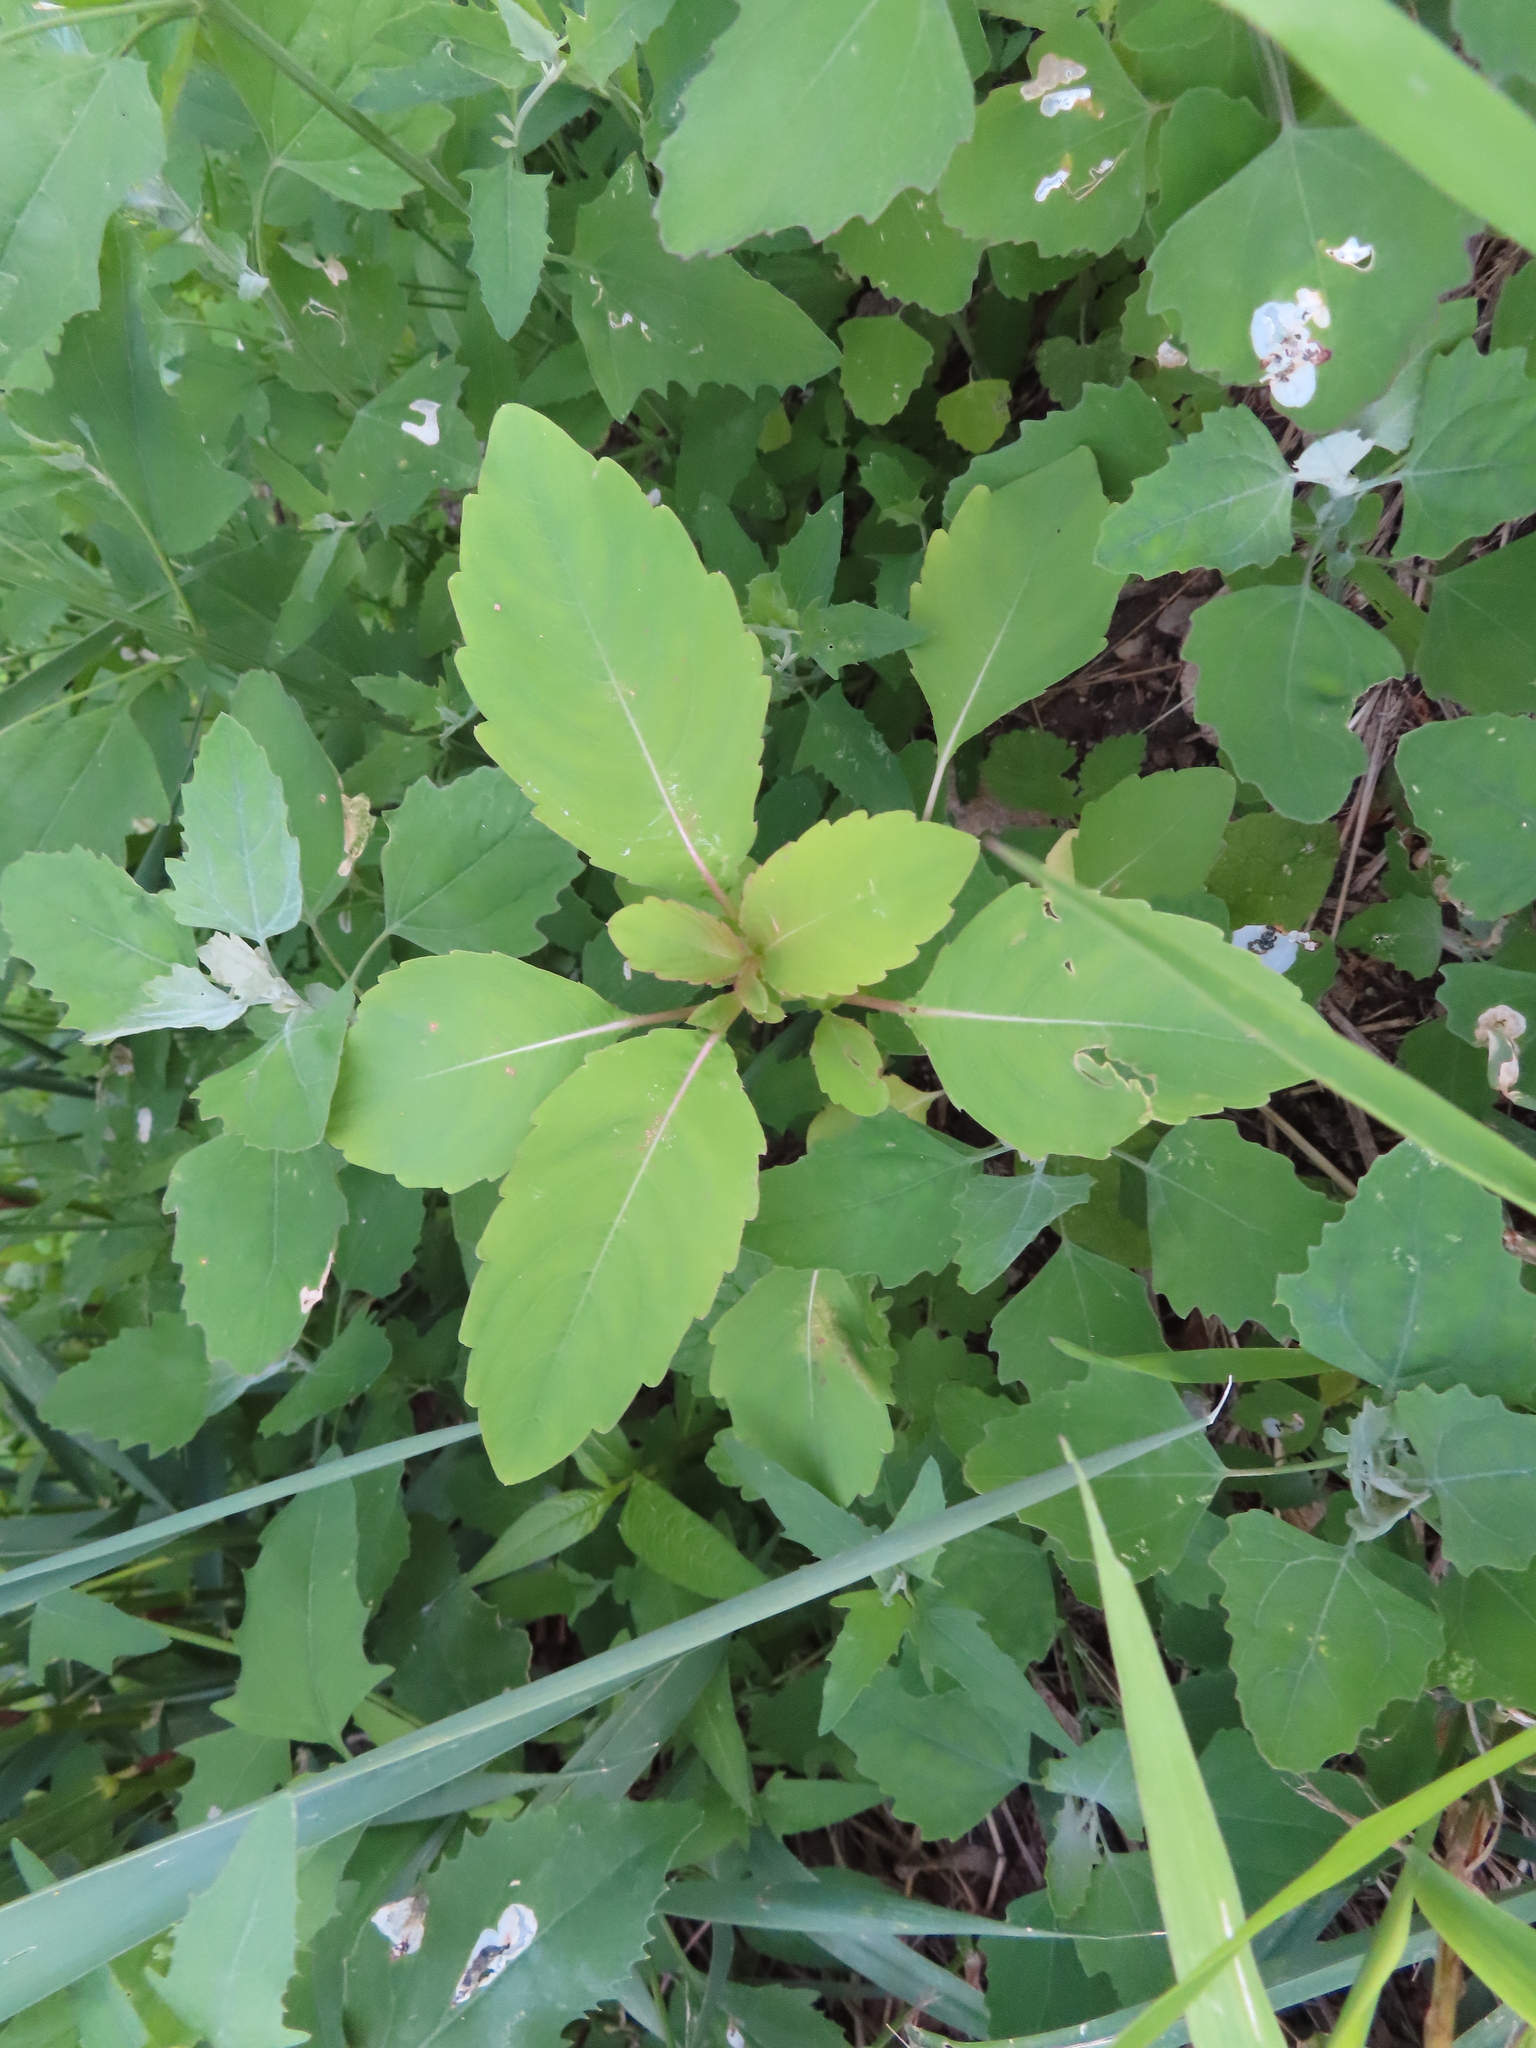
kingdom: Plantae
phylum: Tracheophyta
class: Magnoliopsida
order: Ericales
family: Balsaminaceae
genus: Impatiens
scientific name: Impatiens capensis
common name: Orange balsam
